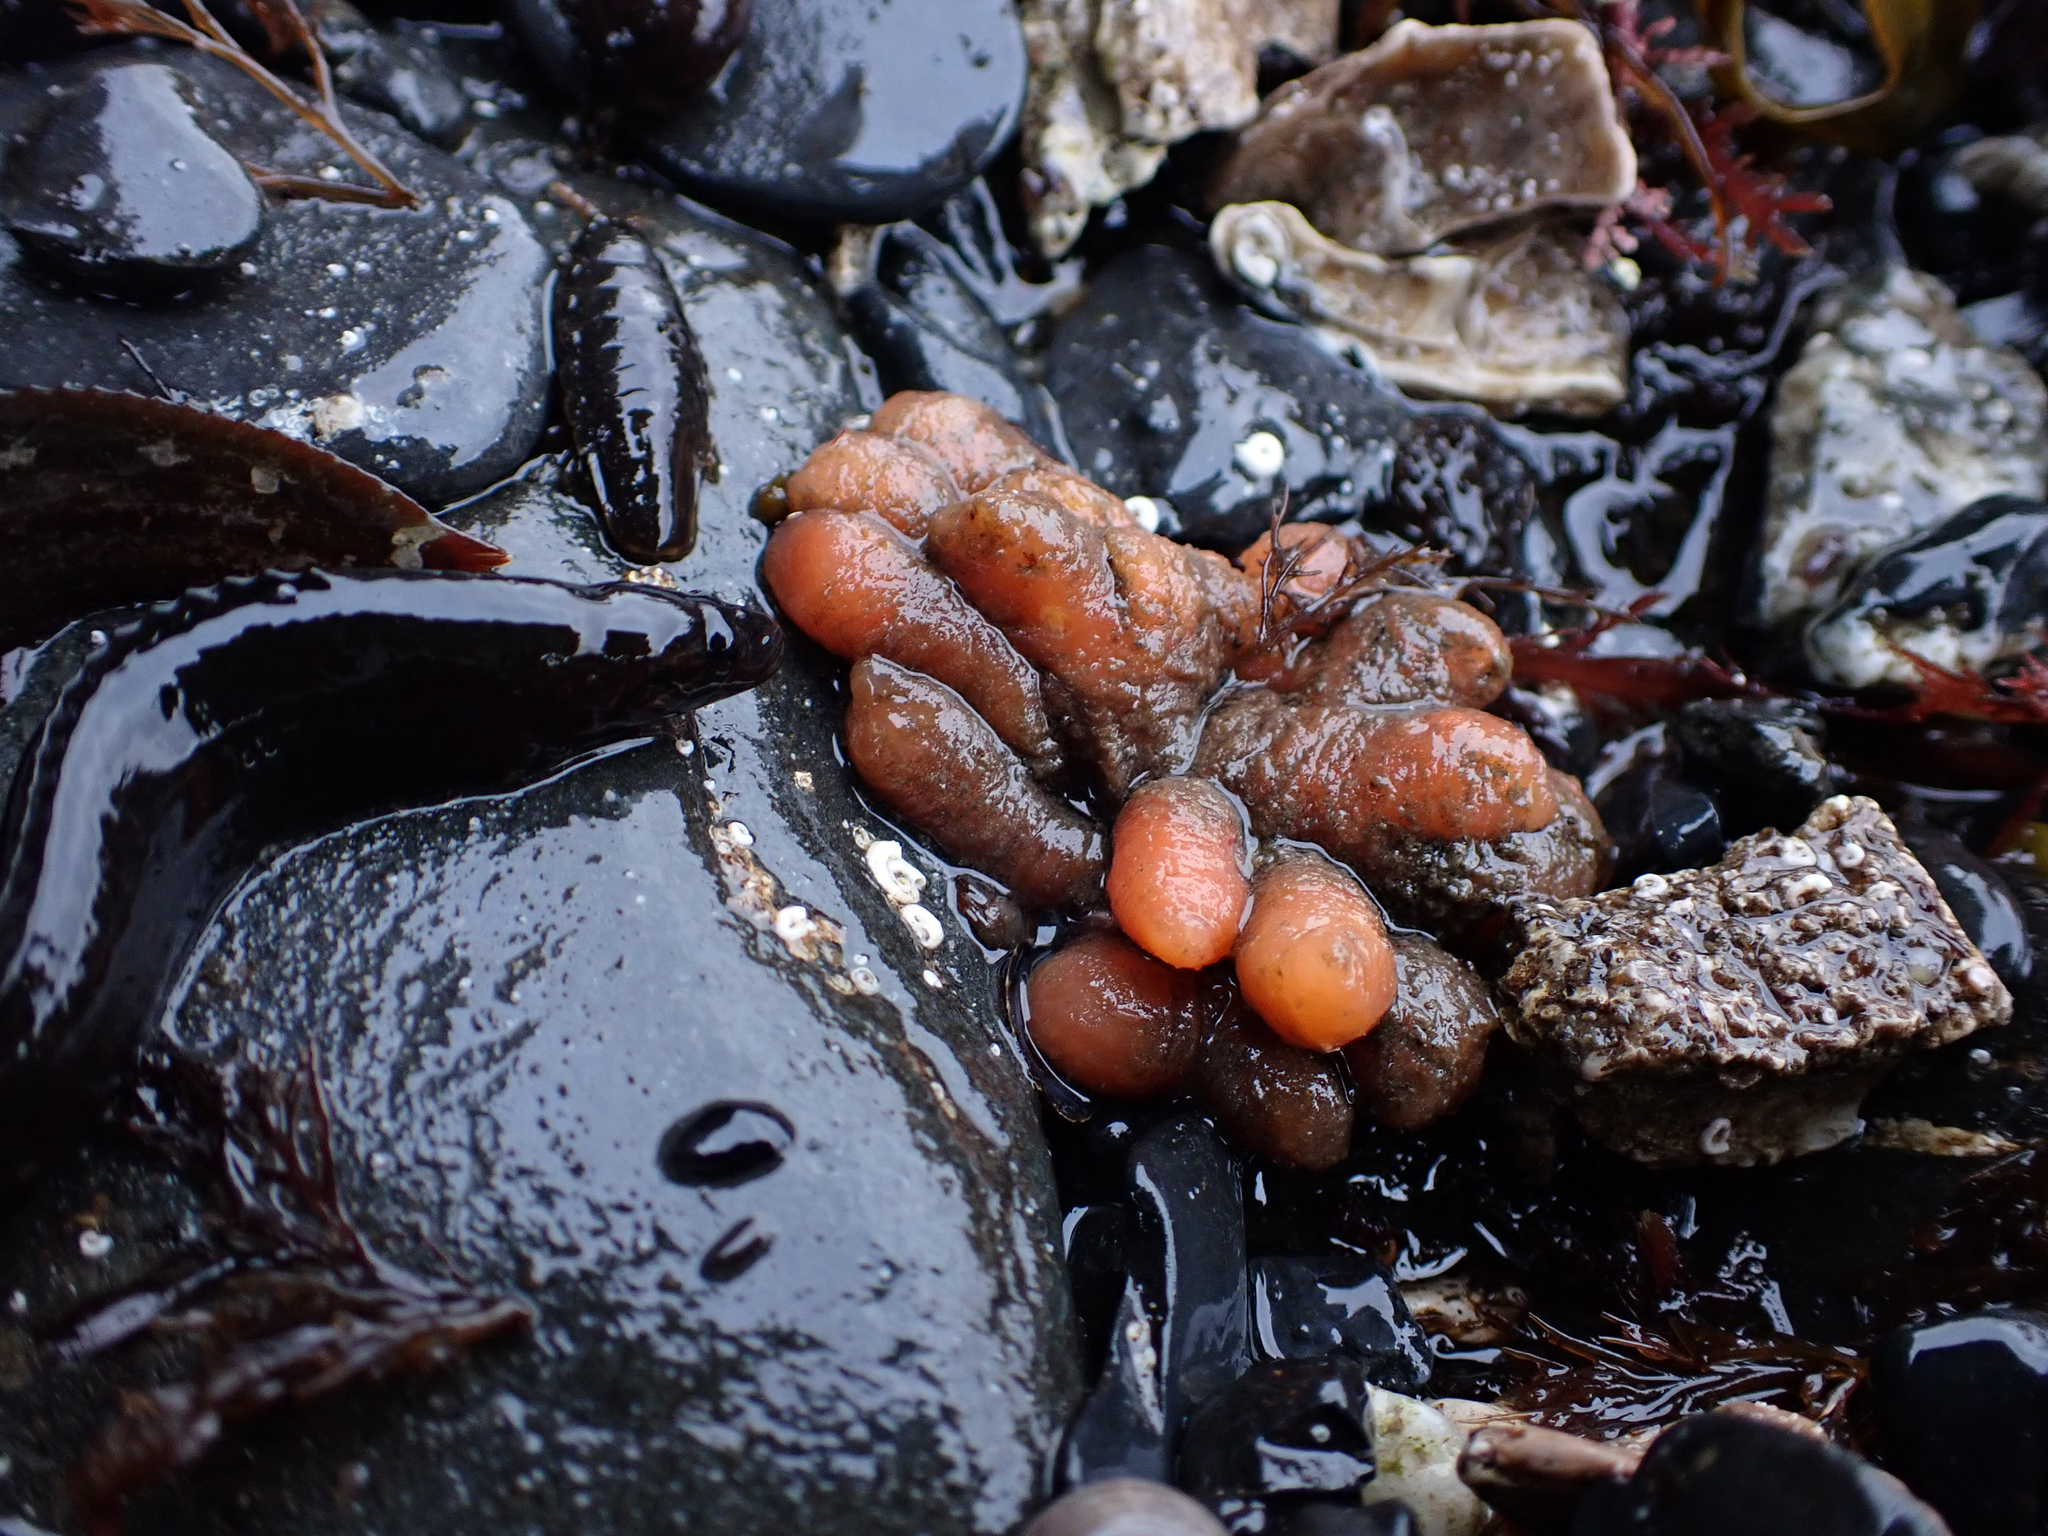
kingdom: Animalia
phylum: Chordata
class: Ascidiacea
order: Aplousobranchia
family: Polyclinidae
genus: Aplidium
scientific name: Aplidium coei
